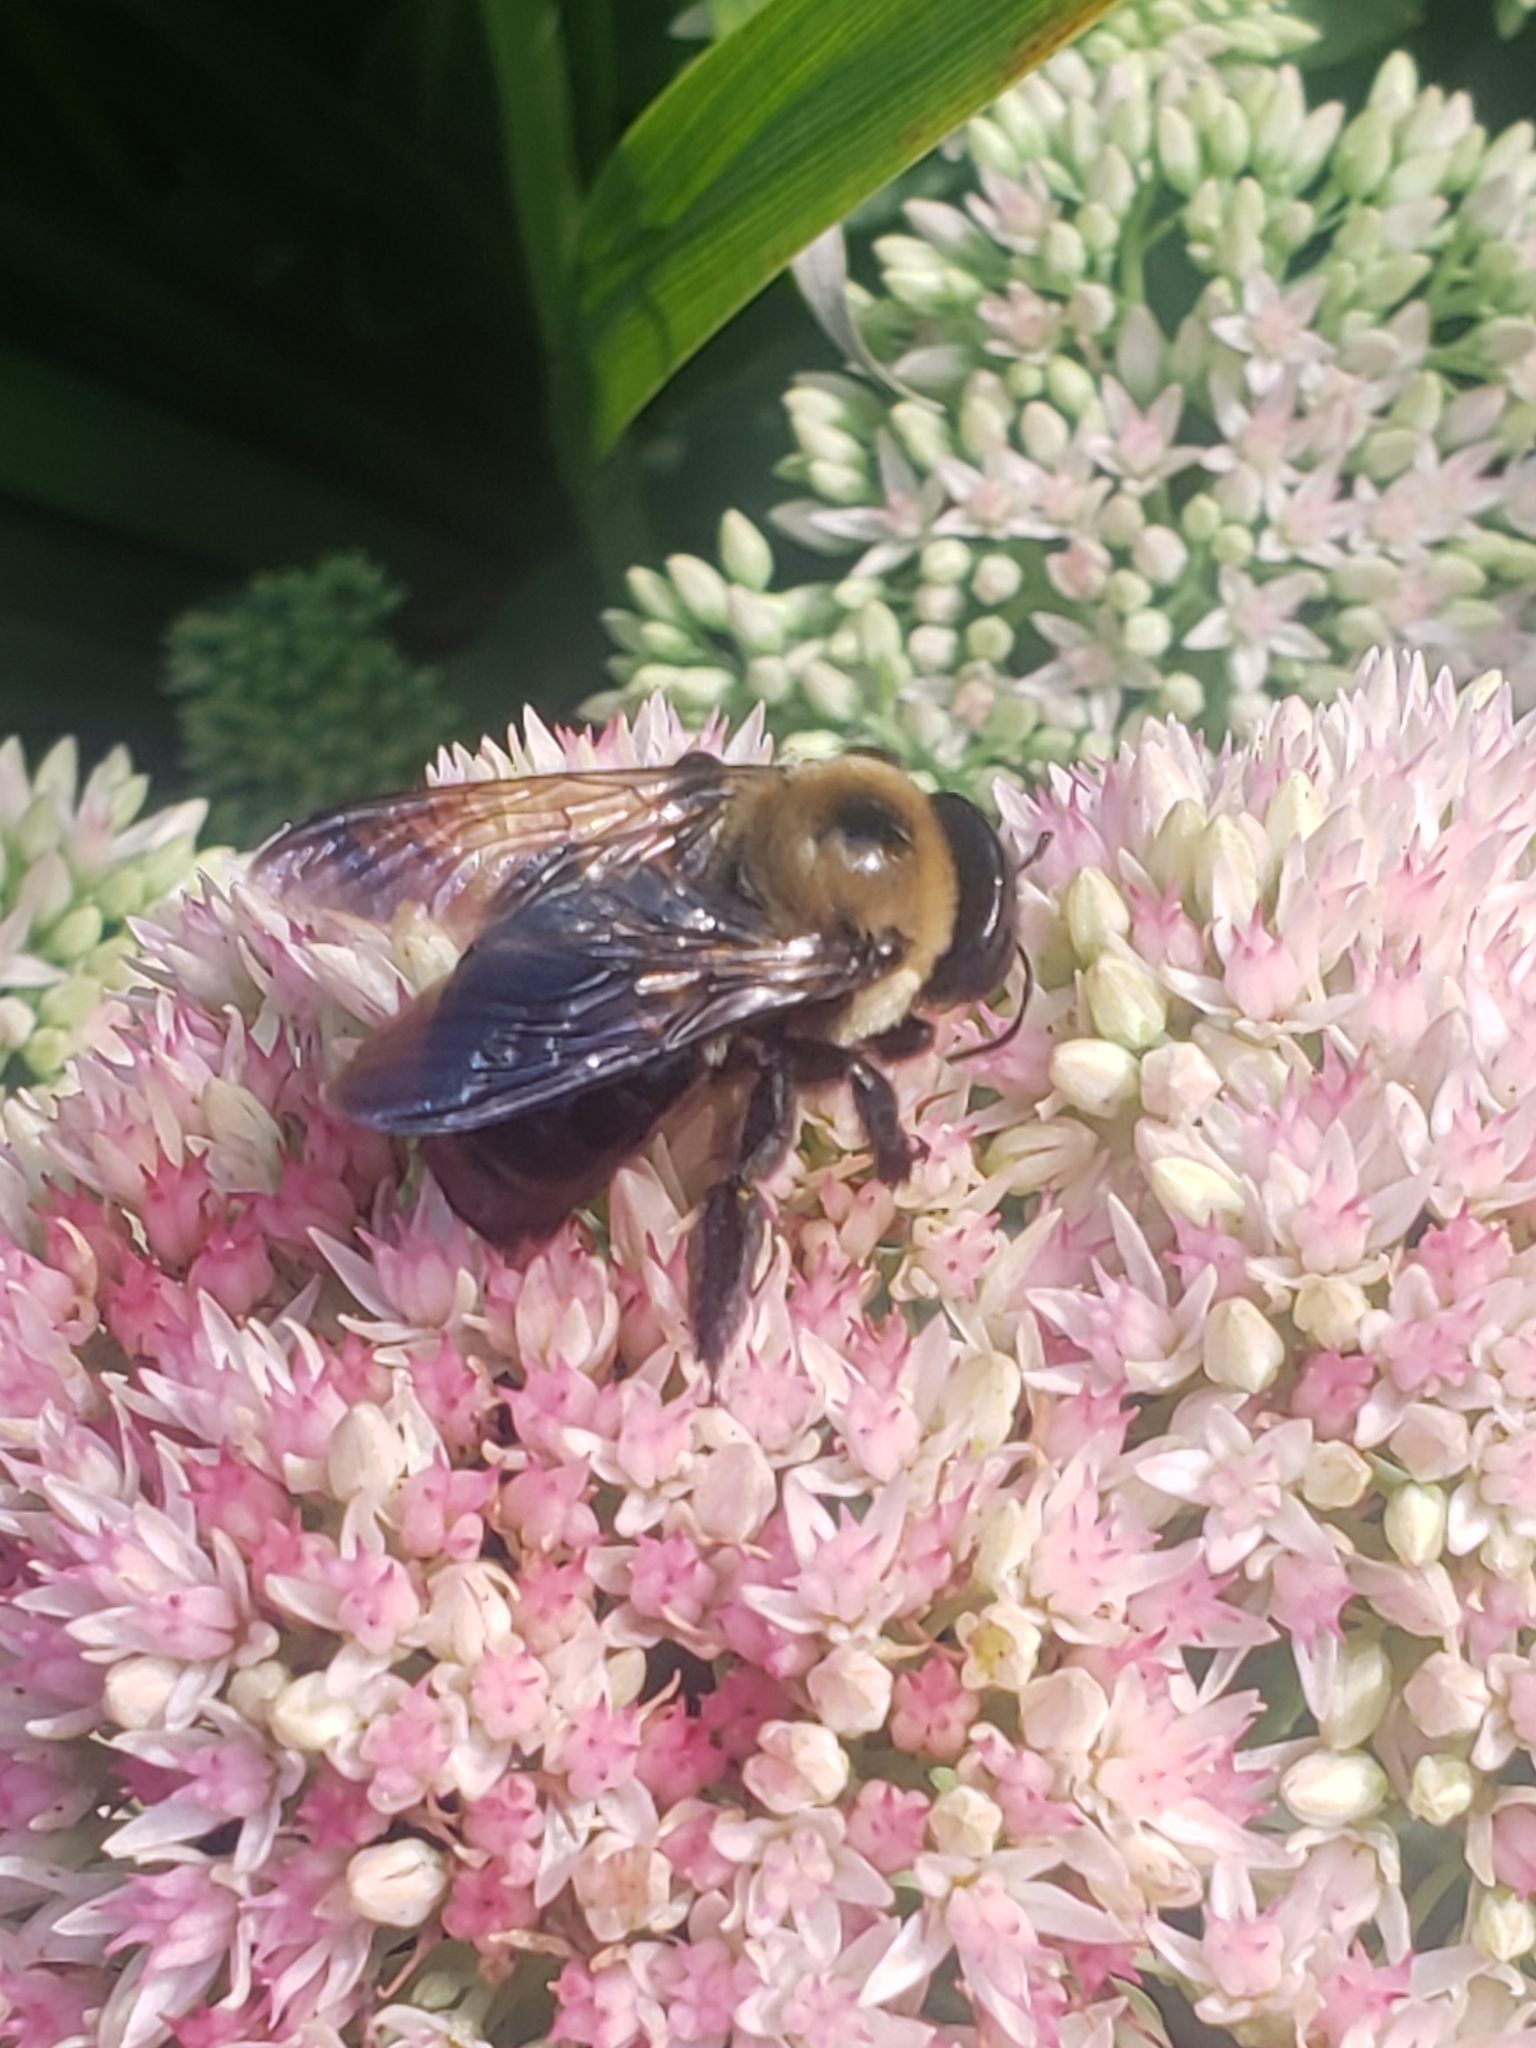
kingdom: Animalia
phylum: Arthropoda
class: Insecta
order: Hymenoptera
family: Apidae
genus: Xylocopa
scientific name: Xylocopa virginica
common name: Carpenter bee
